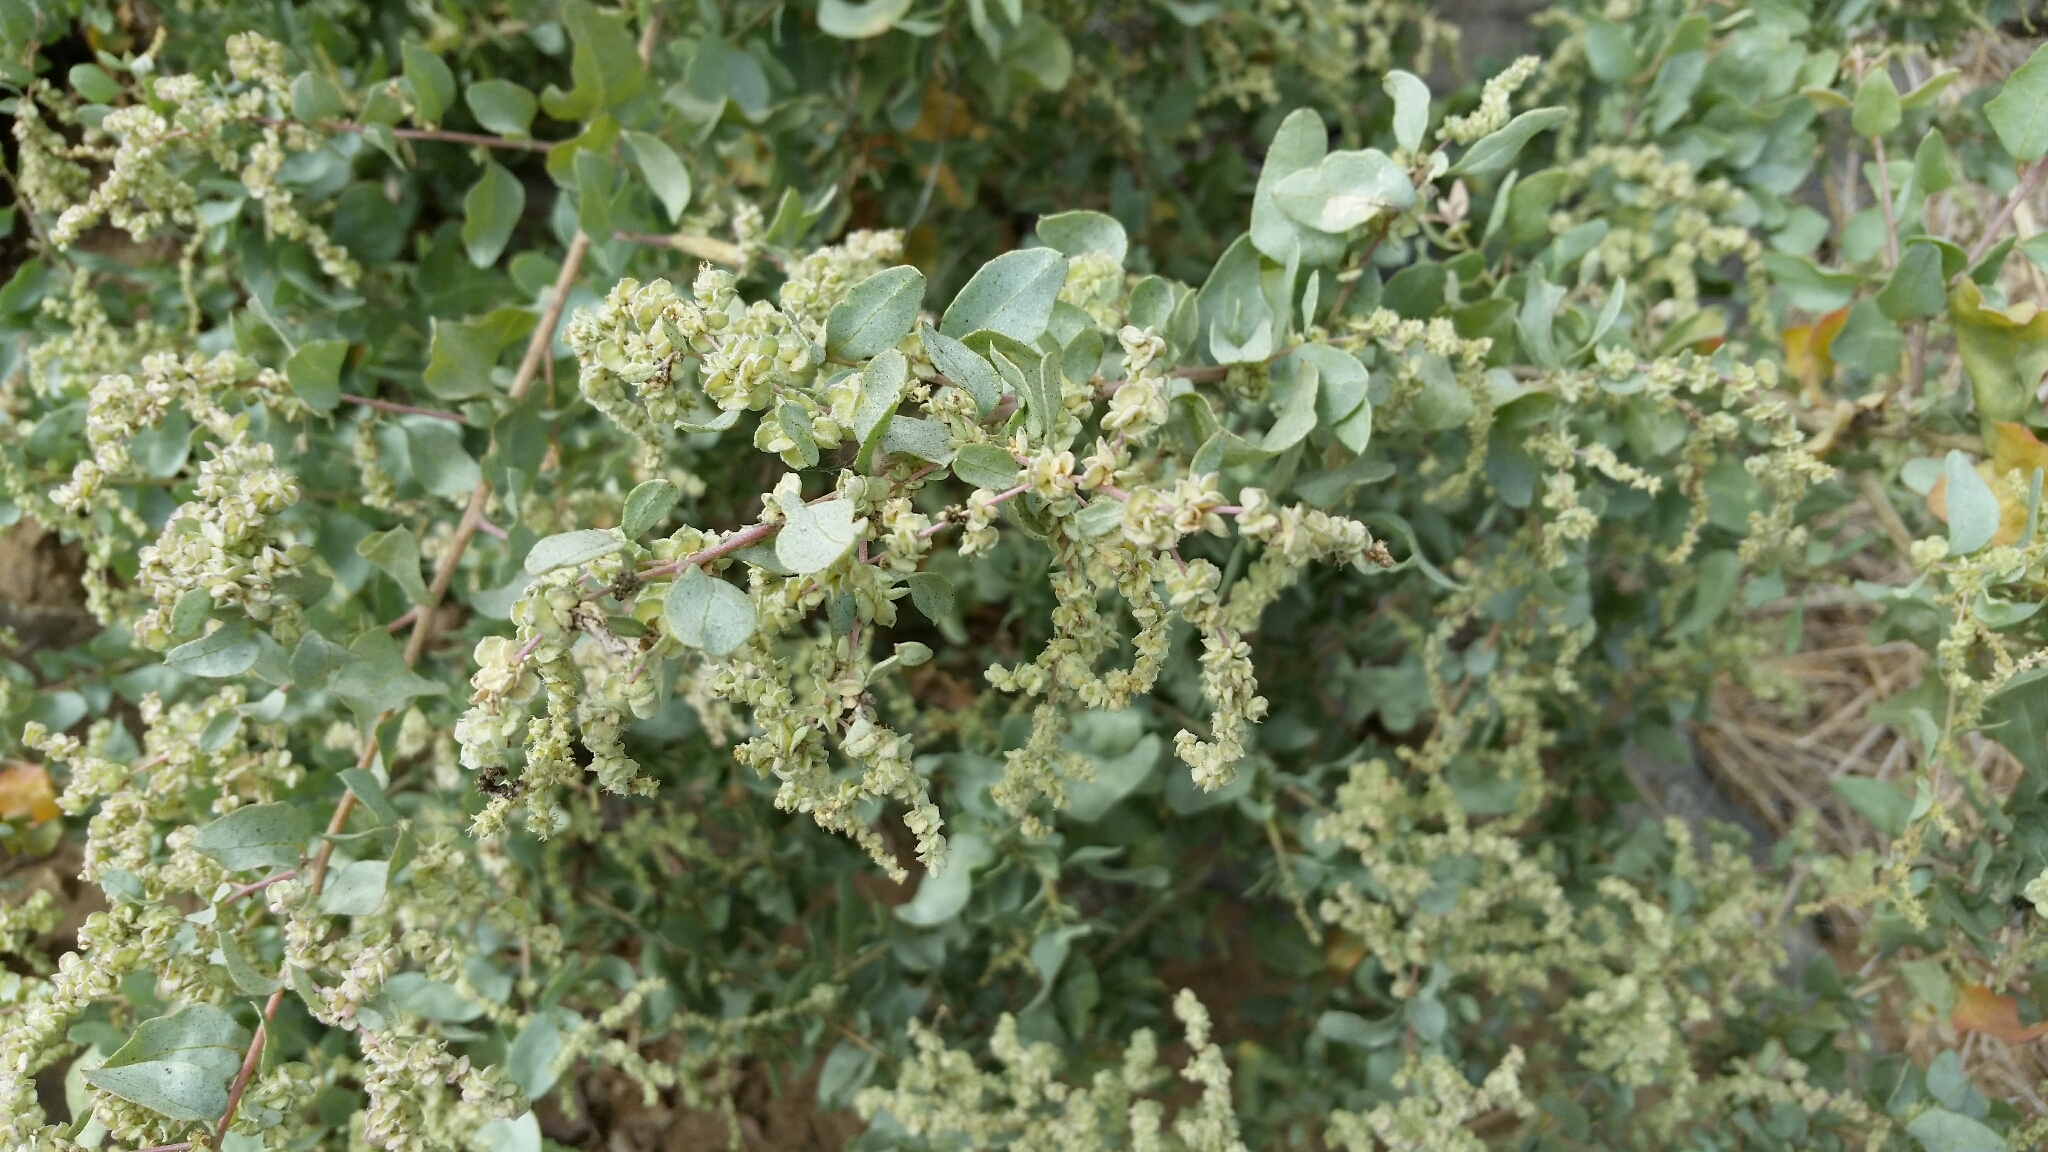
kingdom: Plantae
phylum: Tracheophyta
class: Magnoliopsida
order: Caryophyllales
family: Amaranthaceae
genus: Atriplex
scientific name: Atriplex lentiformis
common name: Big saltbush
